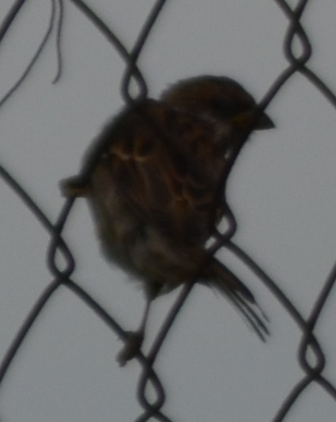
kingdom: Animalia
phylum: Chordata
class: Aves
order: Passeriformes
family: Passeridae
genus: Passer
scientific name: Passer montanus
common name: Eurasian tree sparrow
